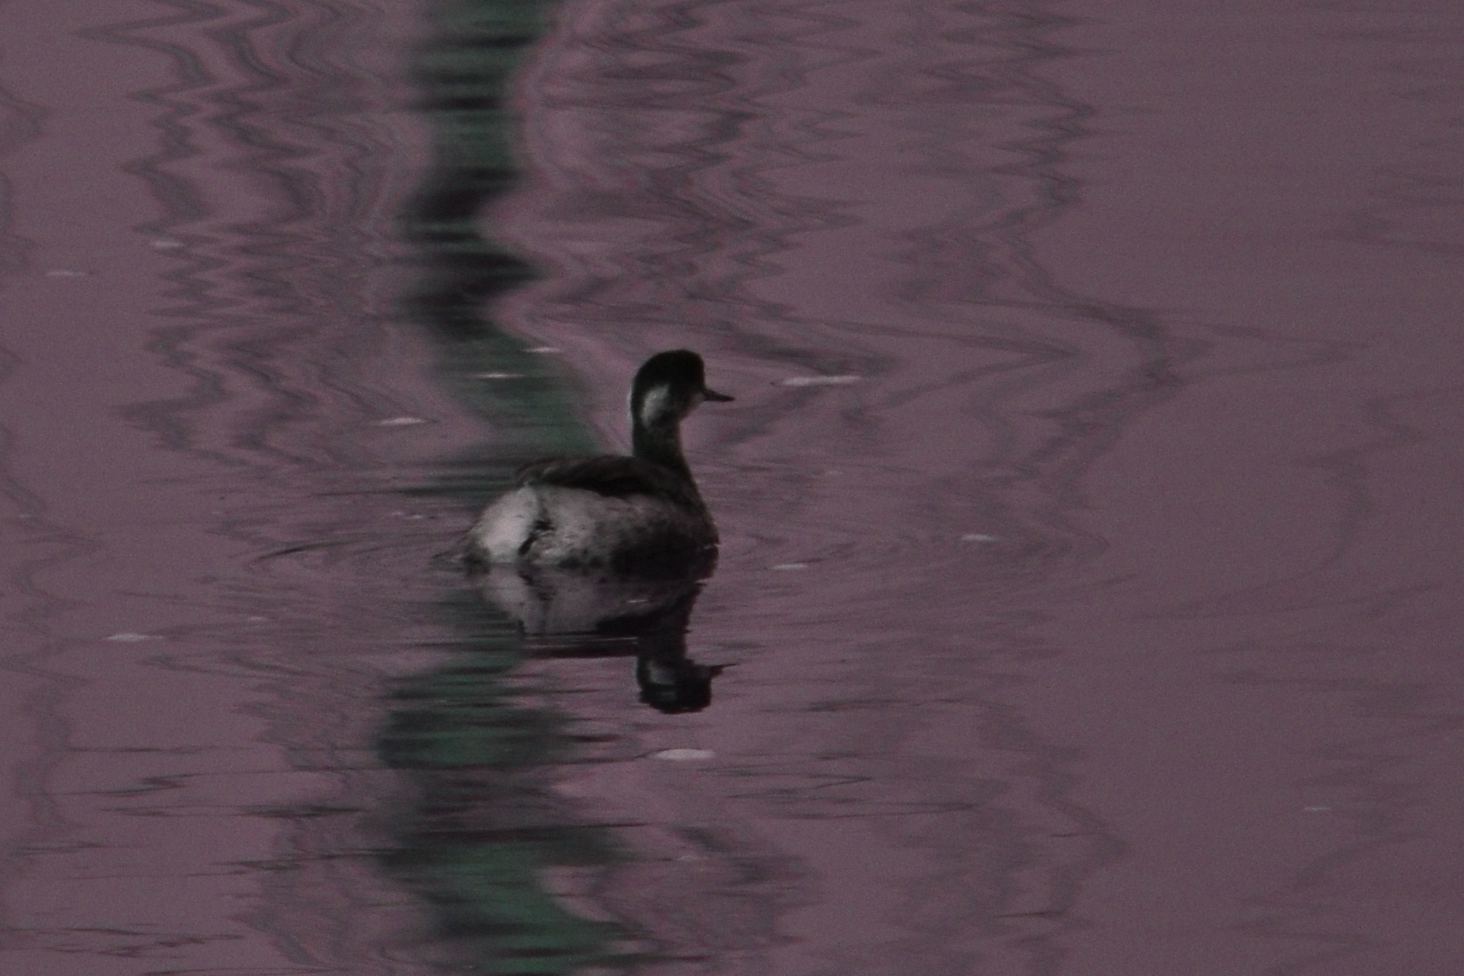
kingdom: Animalia
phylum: Chordata
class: Aves
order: Podicipediformes
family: Podicipedidae
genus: Podiceps
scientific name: Podiceps nigricollis
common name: Black-necked grebe
